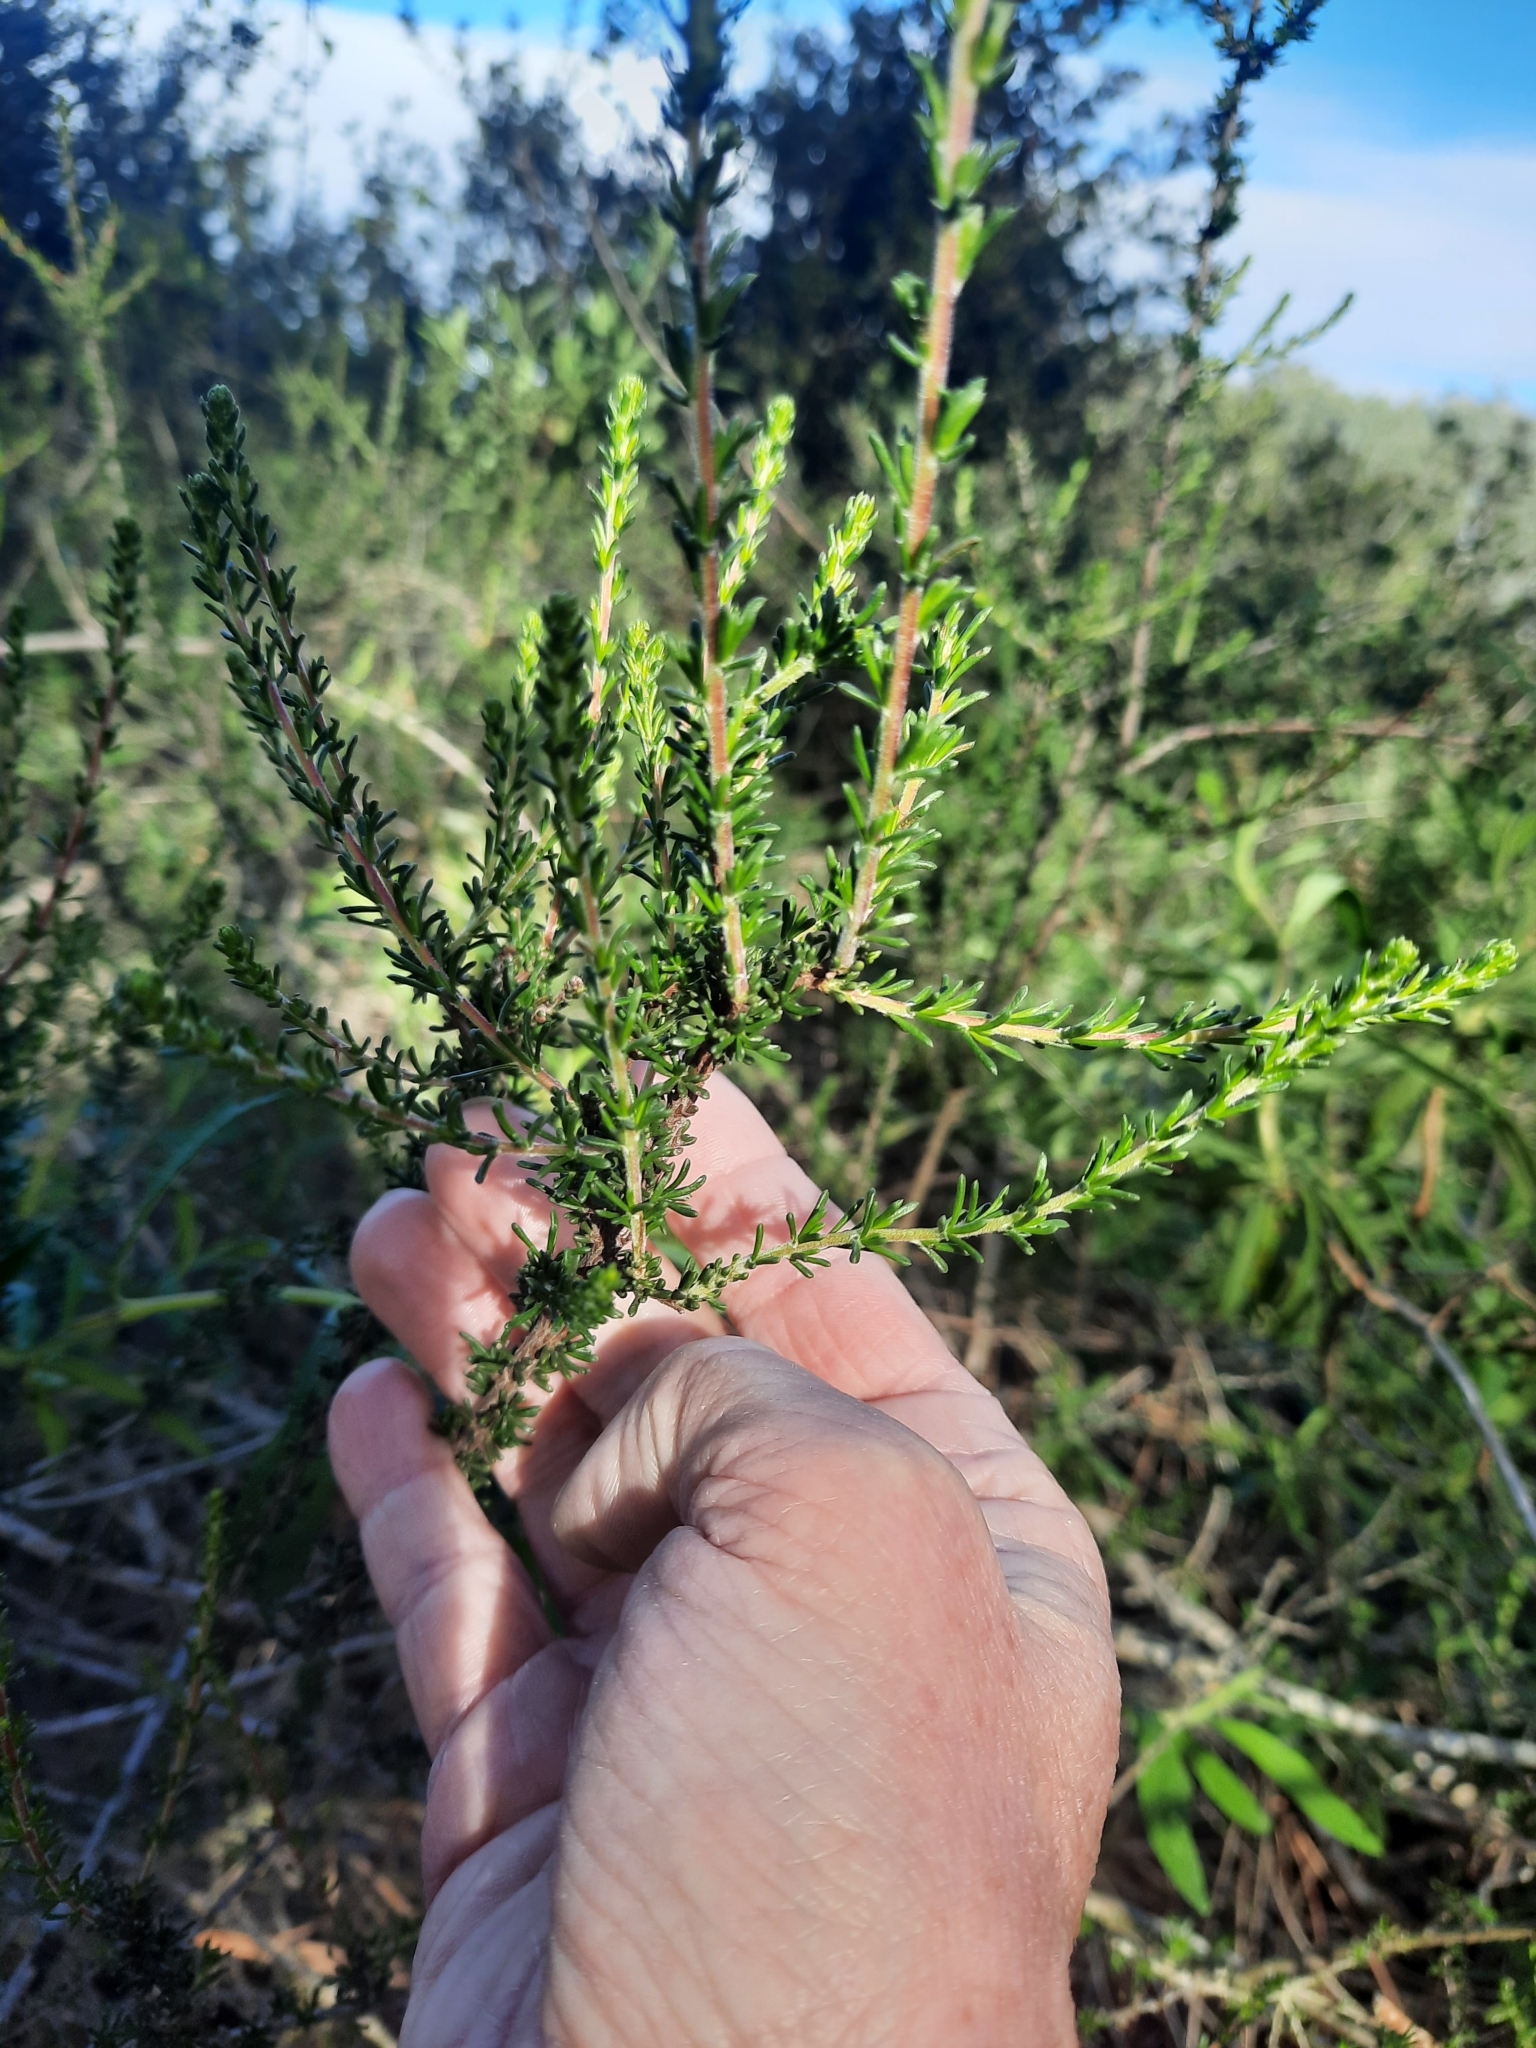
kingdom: Plantae
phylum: Tracheophyta
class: Magnoliopsida
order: Rosales
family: Rosaceae
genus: Adenostoma
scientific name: Adenostoma fasciculatum
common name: Chamise
